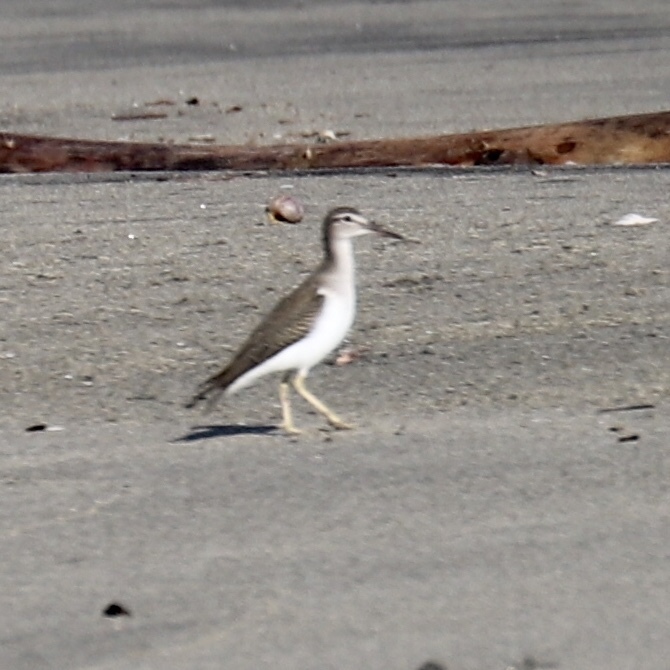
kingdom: Animalia
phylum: Chordata
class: Aves
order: Charadriiformes
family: Scolopacidae
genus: Actitis
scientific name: Actitis macularius
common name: Spotted sandpiper
